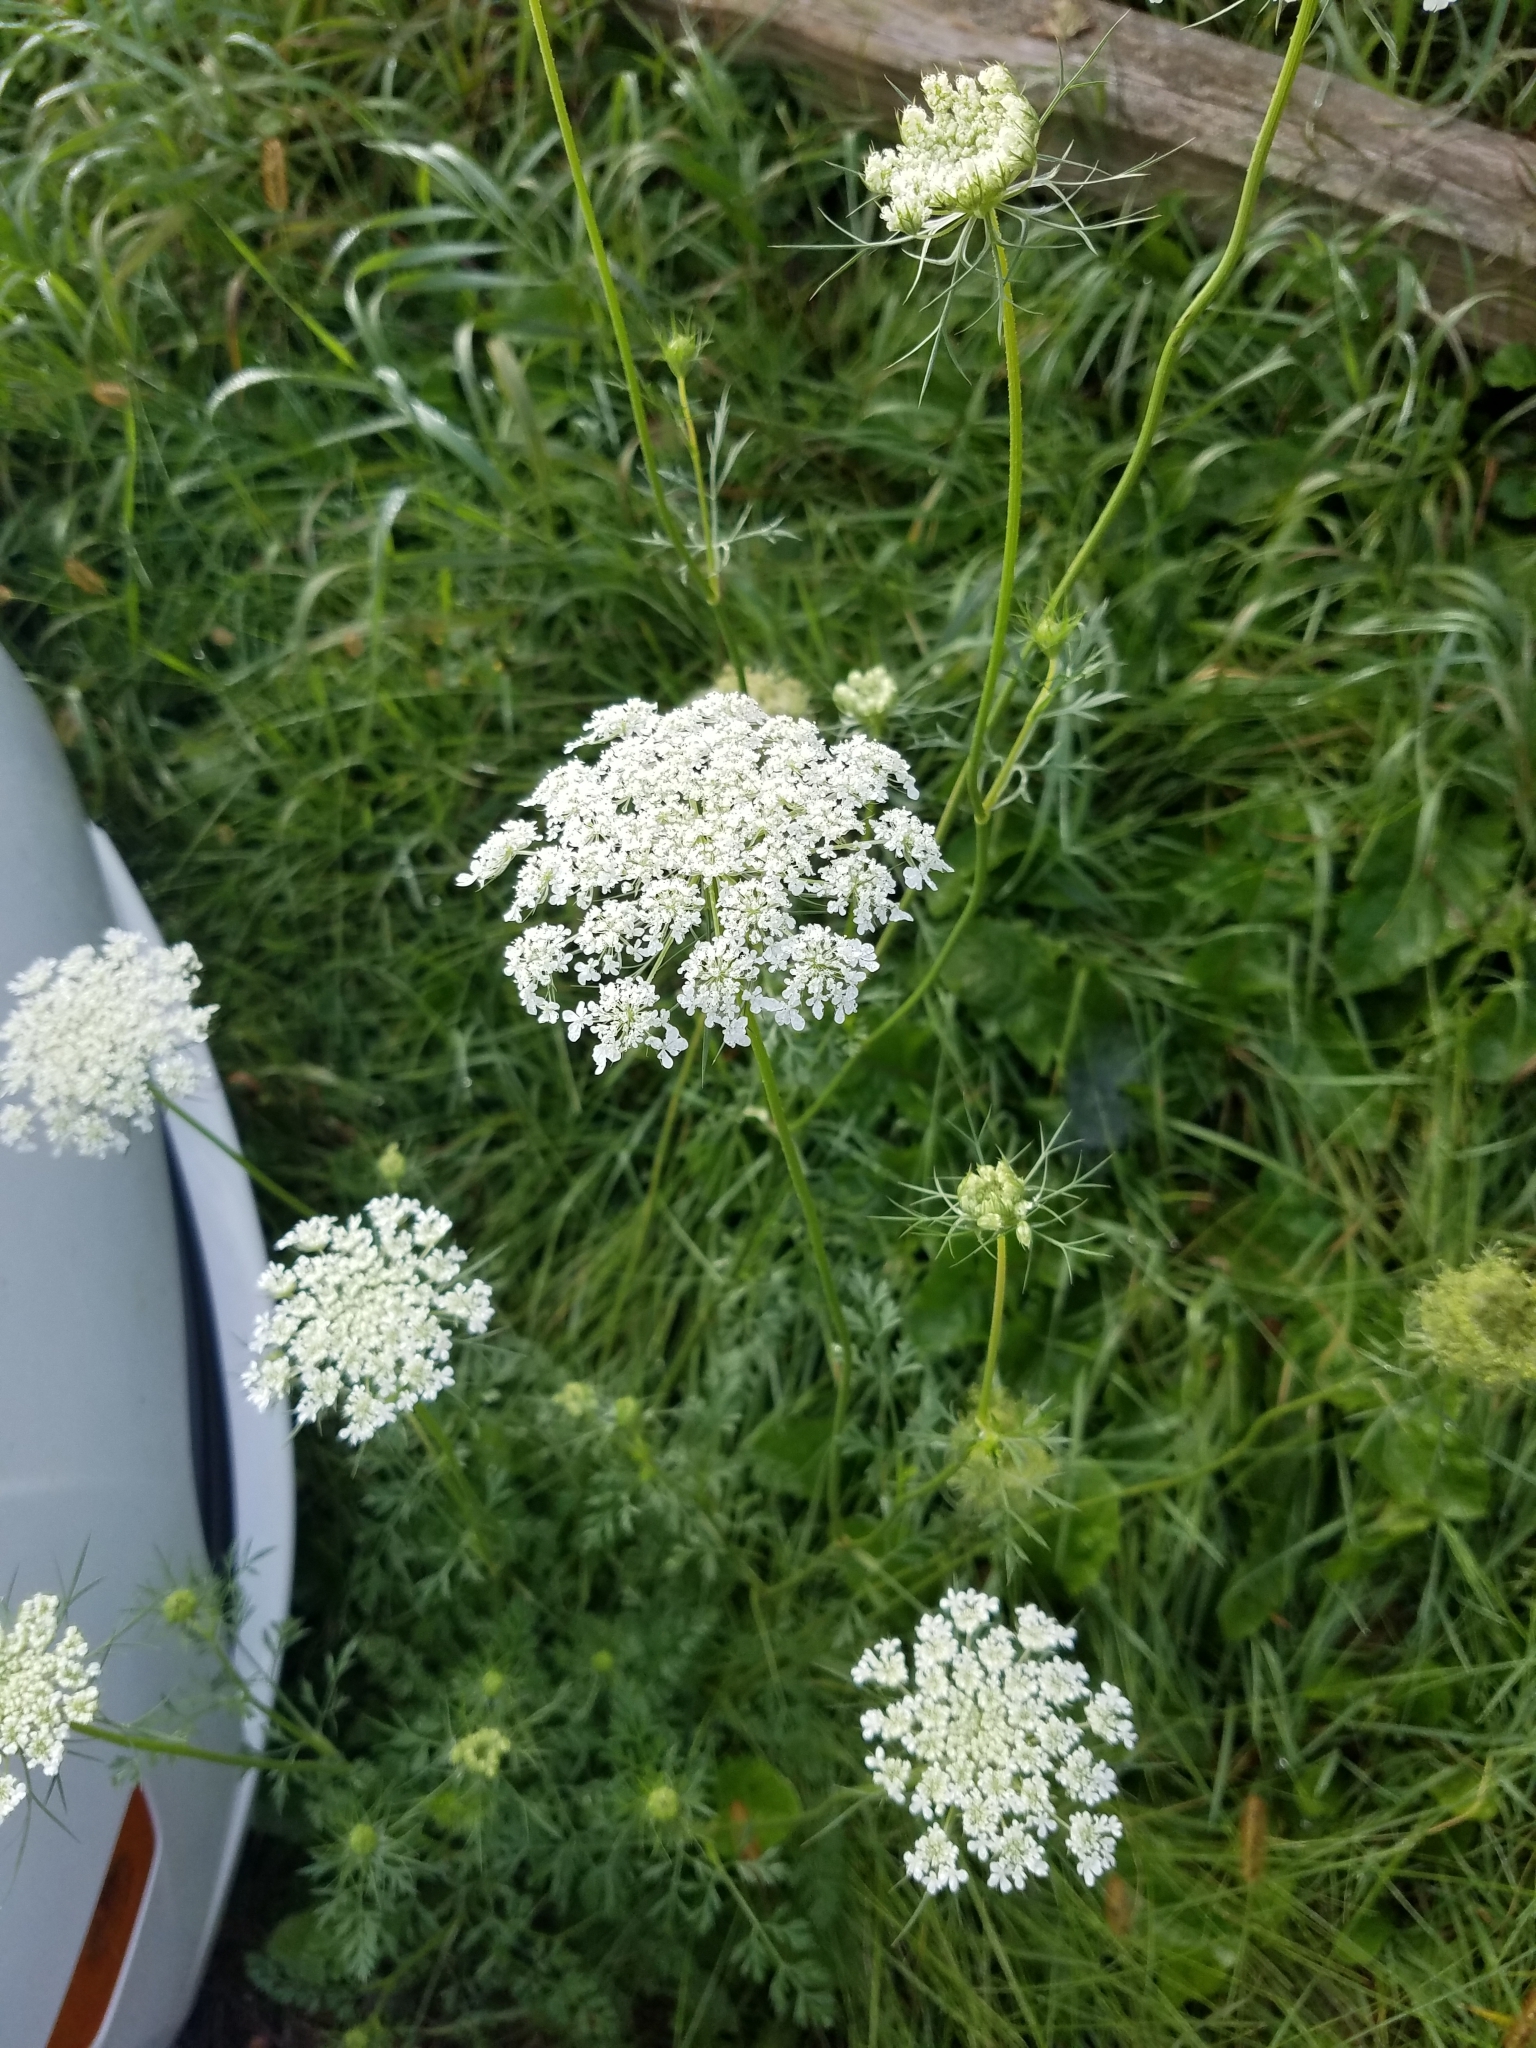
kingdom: Plantae
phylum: Tracheophyta
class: Magnoliopsida
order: Apiales
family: Apiaceae
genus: Daucus
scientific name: Daucus carota
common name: Wild carrot
